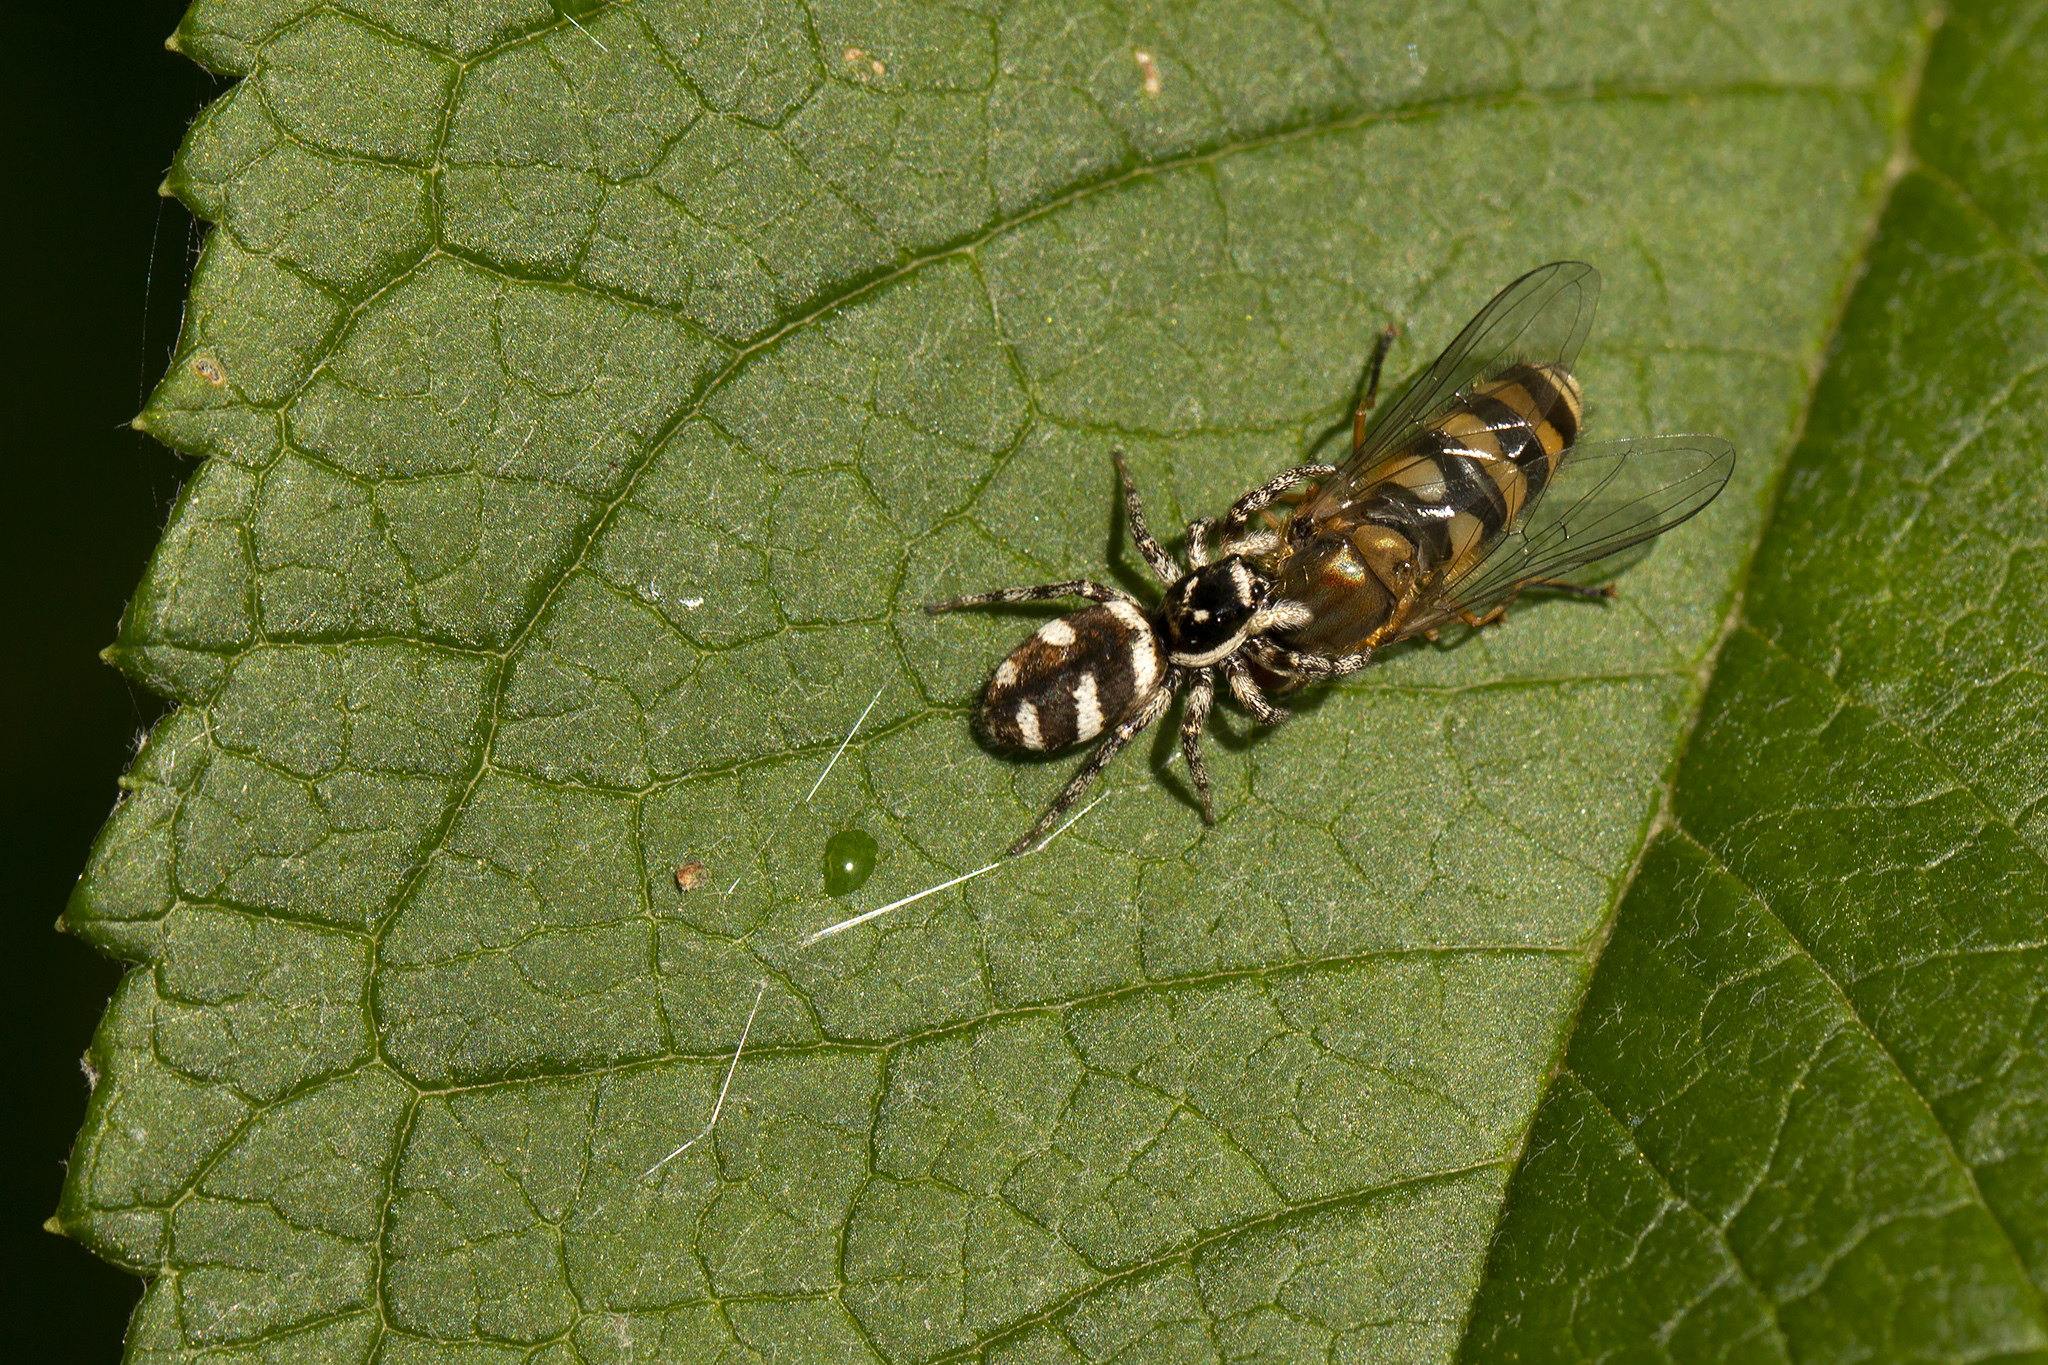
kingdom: Animalia
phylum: Arthropoda
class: Arachnida
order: Araneae
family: Salticidae
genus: Salticus
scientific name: Salticus scenicus
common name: Zebra jumper
